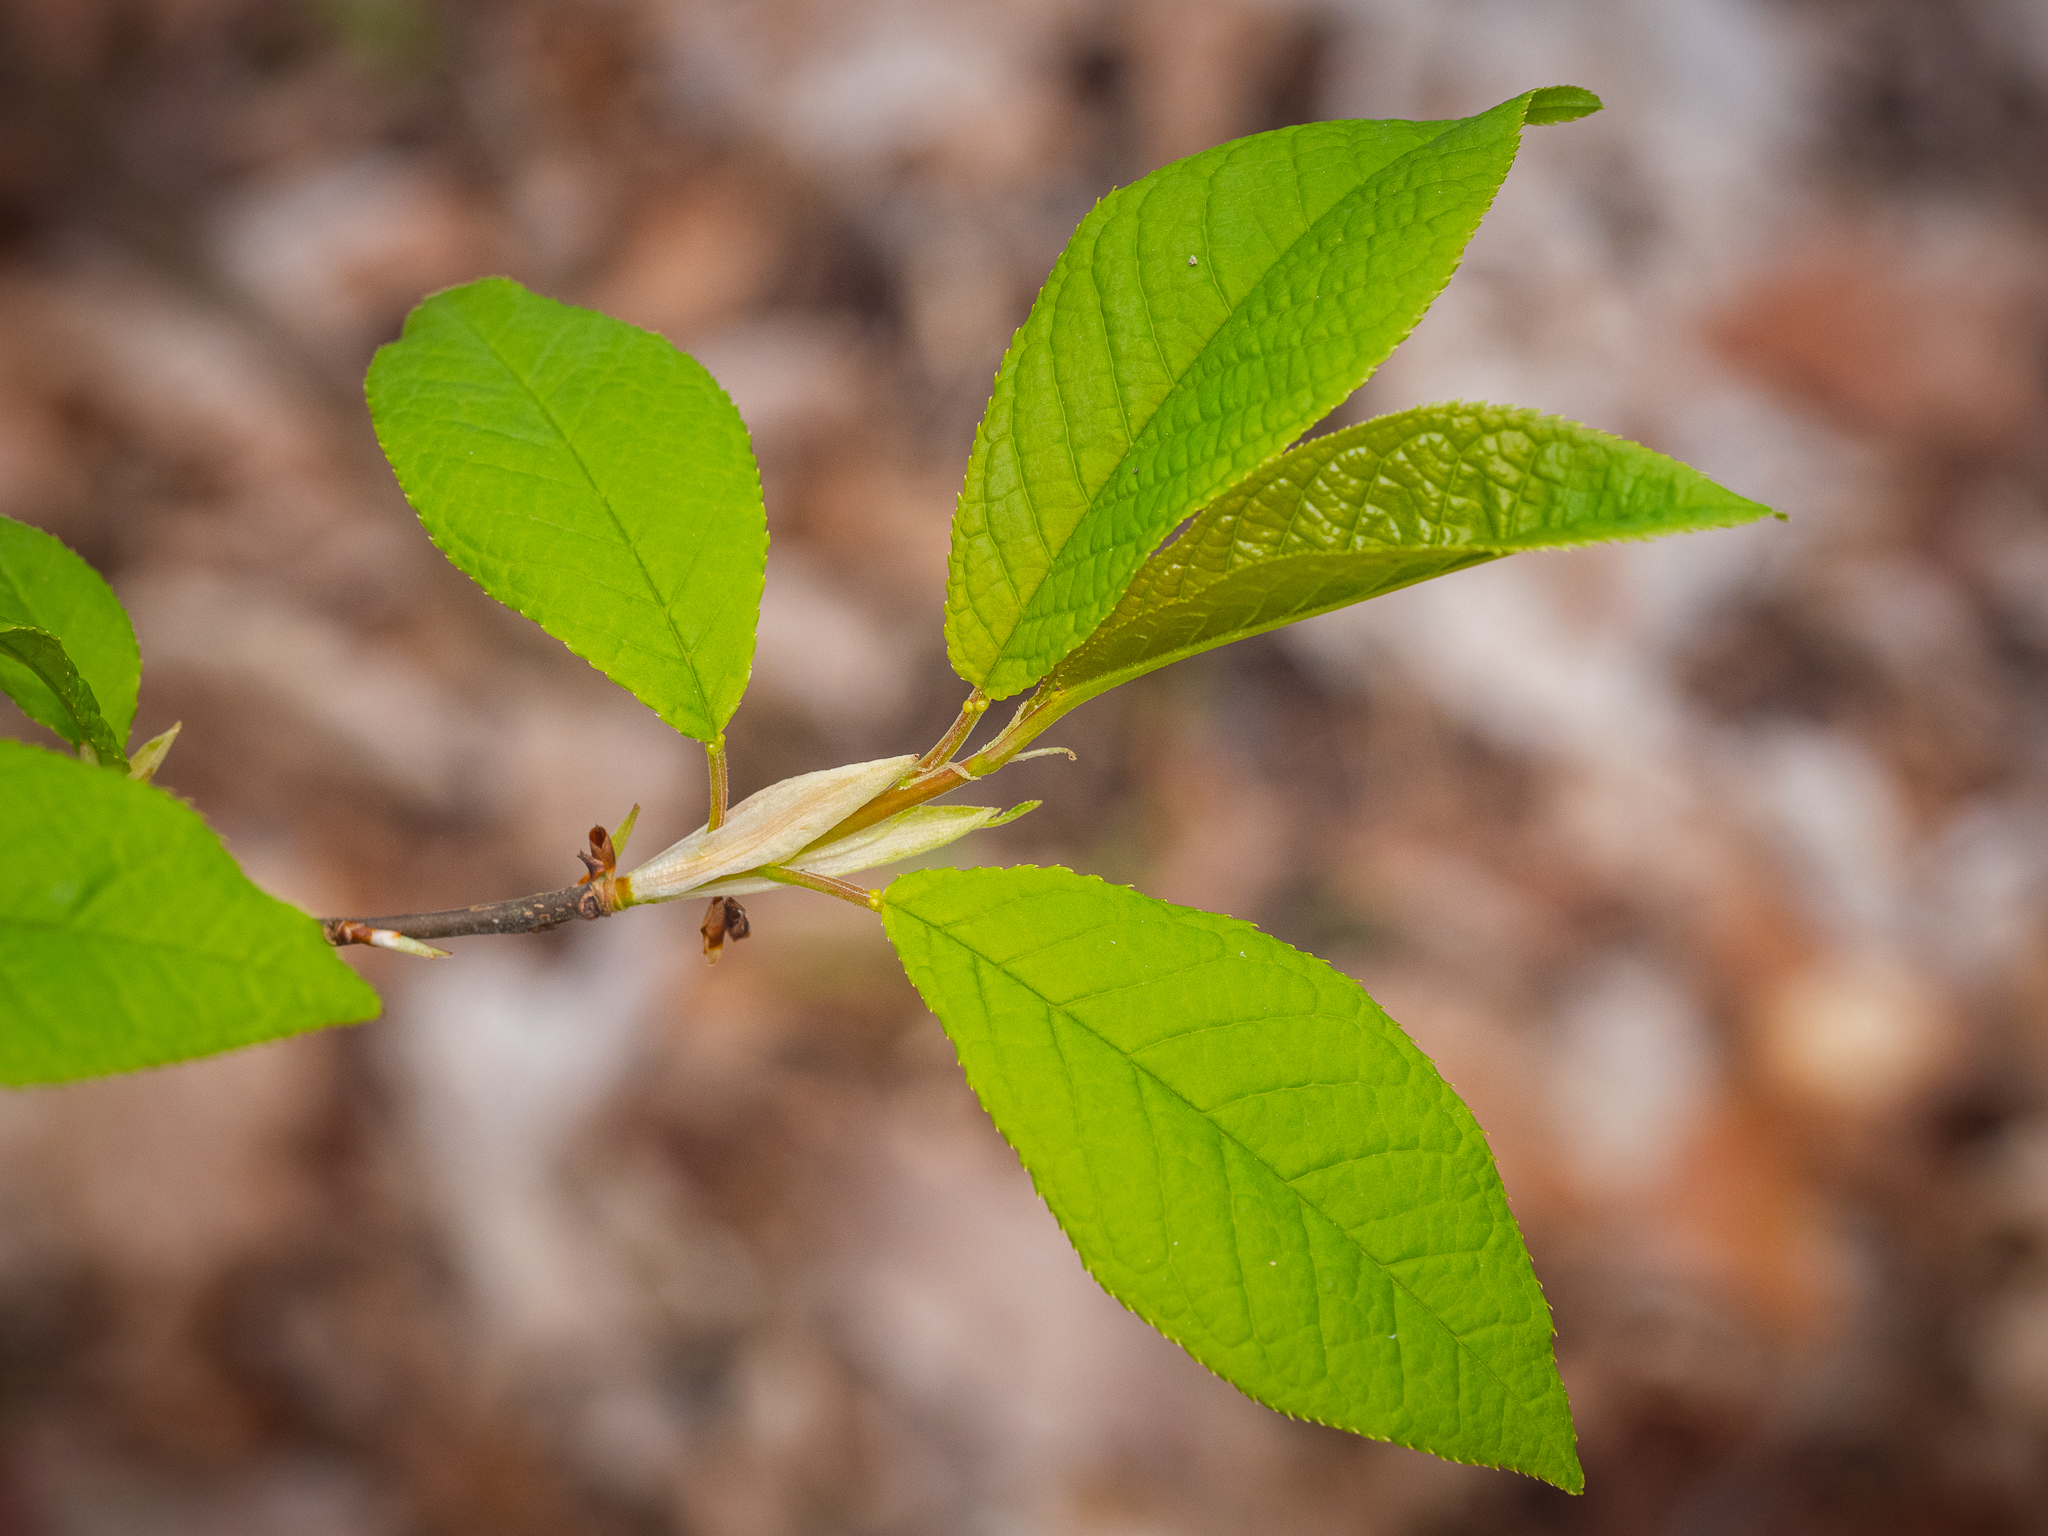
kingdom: Plantae
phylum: Tracheophyta
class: Magnoliopsida
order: Rosales
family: Rosaceae
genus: Prunus
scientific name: Prunus padus
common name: Bird cherry
